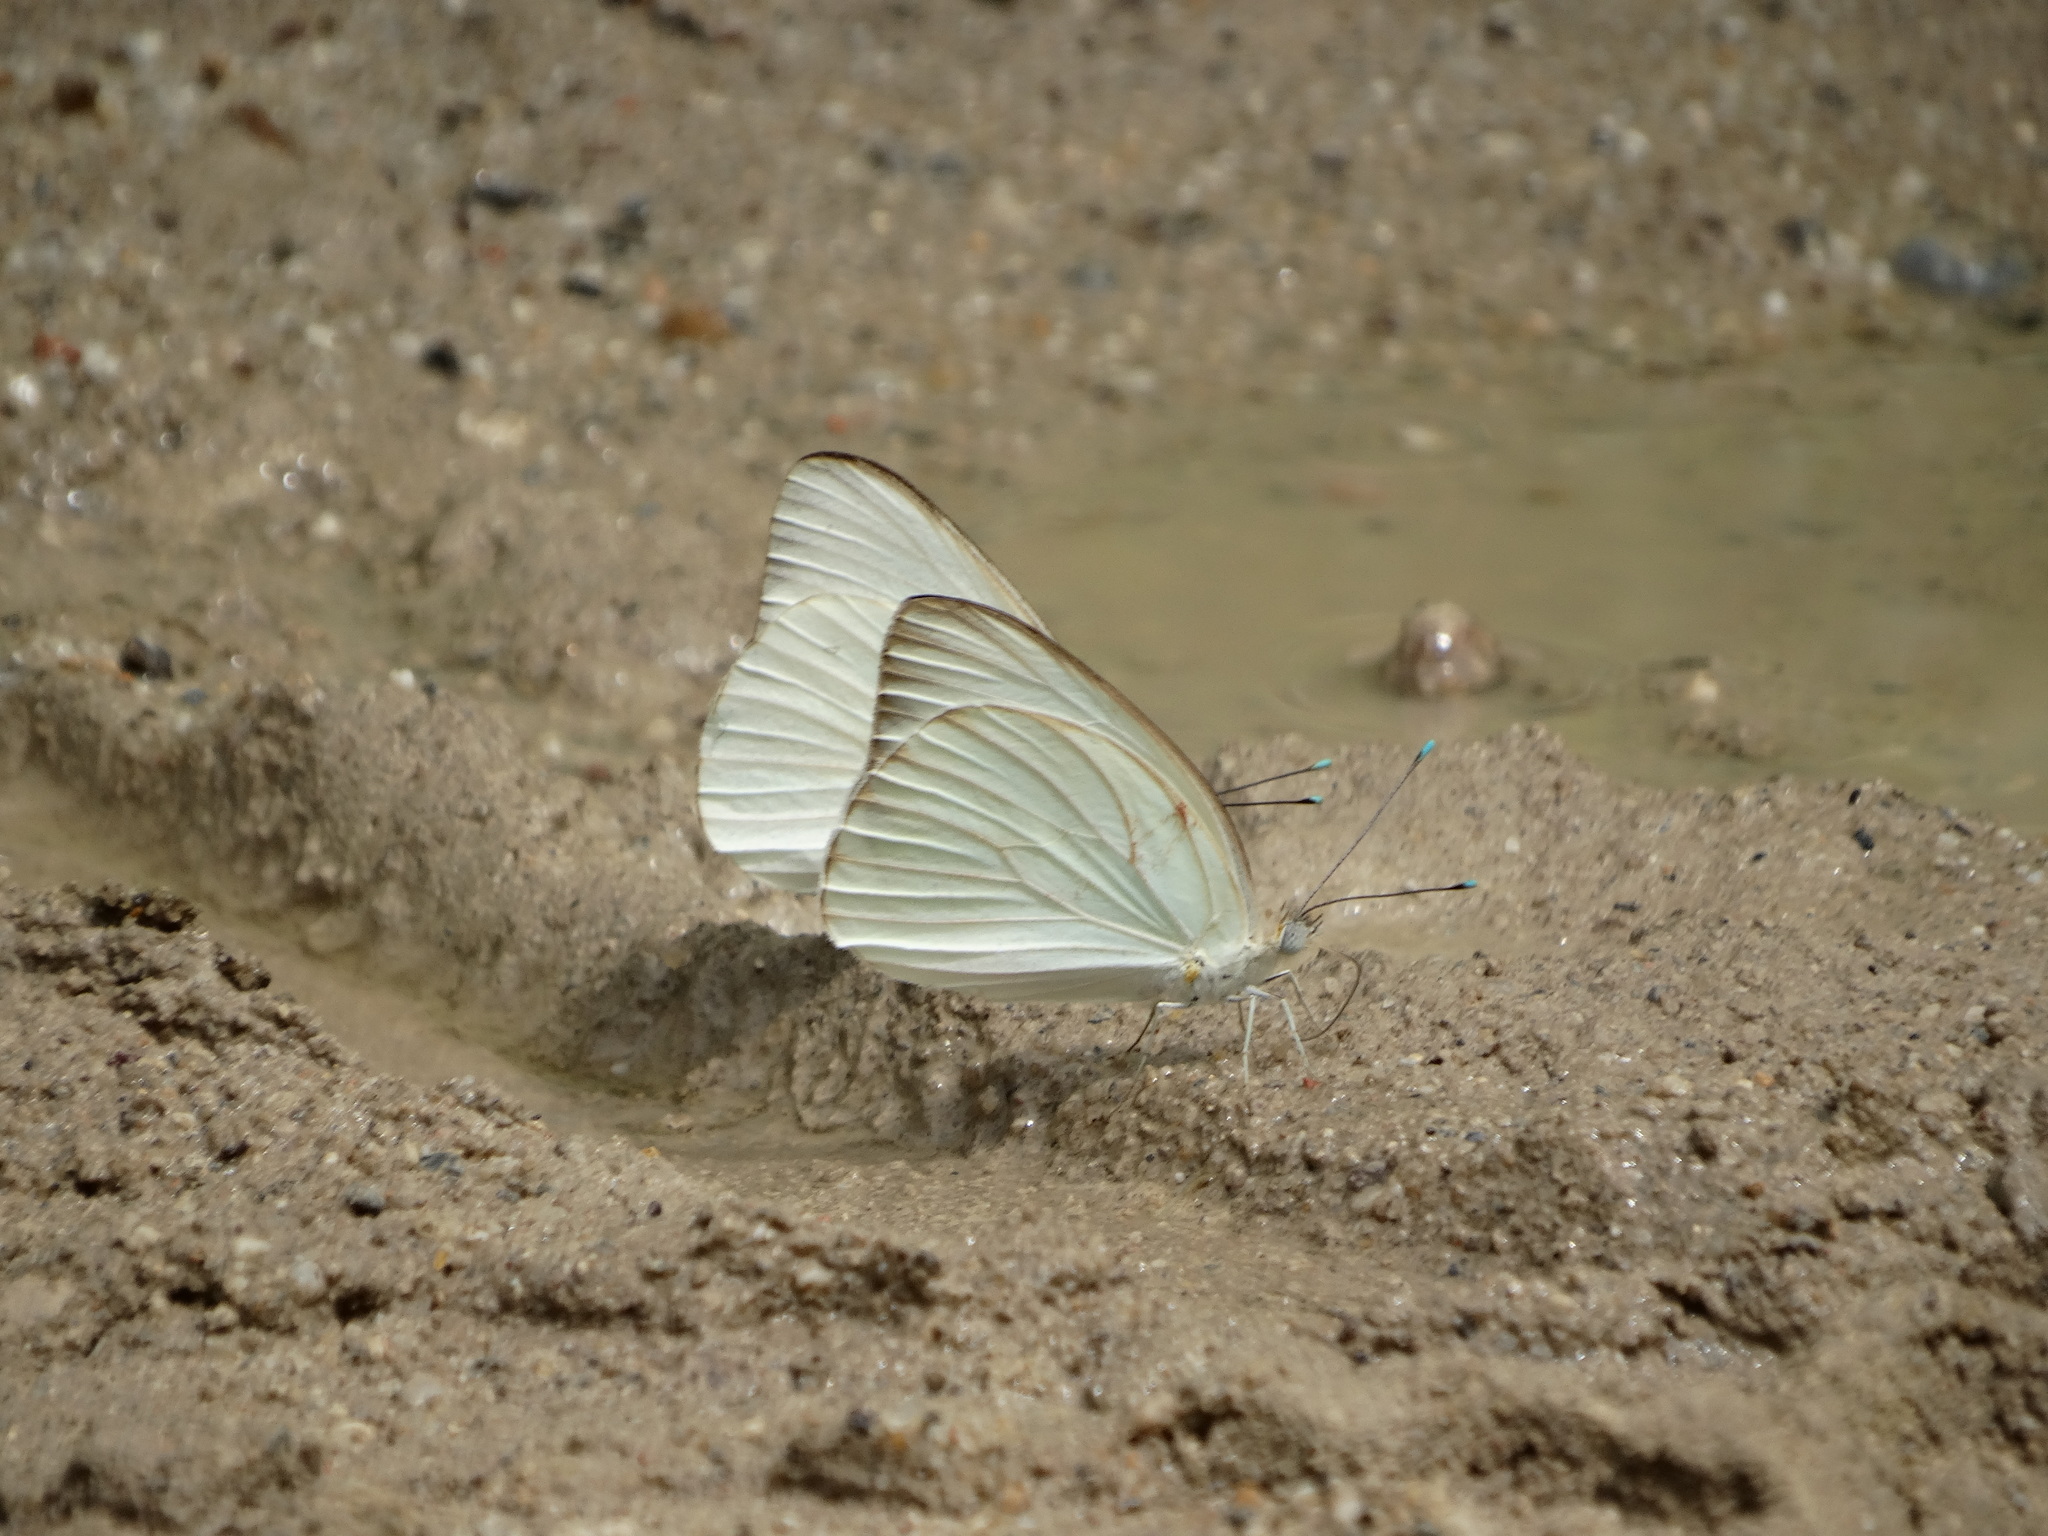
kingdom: Animalia
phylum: Arthropoda
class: Insecta
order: Lepidoptera
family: Pieridae
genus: Ascia
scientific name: Ascia monuste
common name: Great southern white
